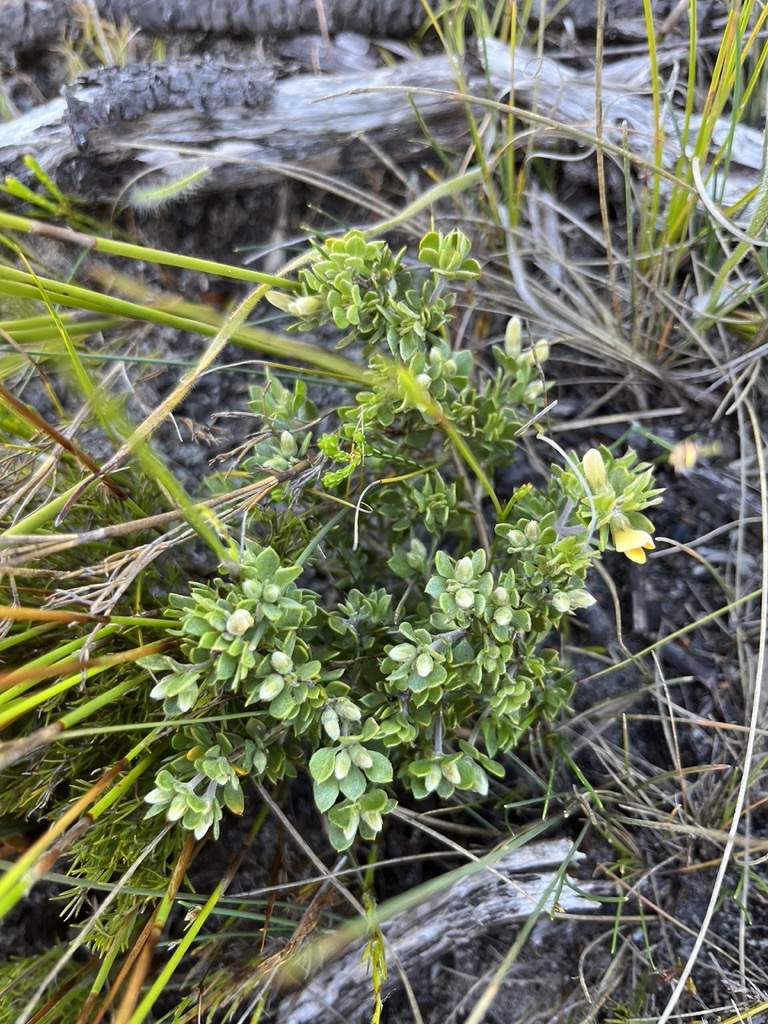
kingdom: Plantae
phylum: Tracheophyta
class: Magnoliopsida
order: Fabales
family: Fabaceae
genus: Aspalathus
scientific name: Aspalathus marginata
